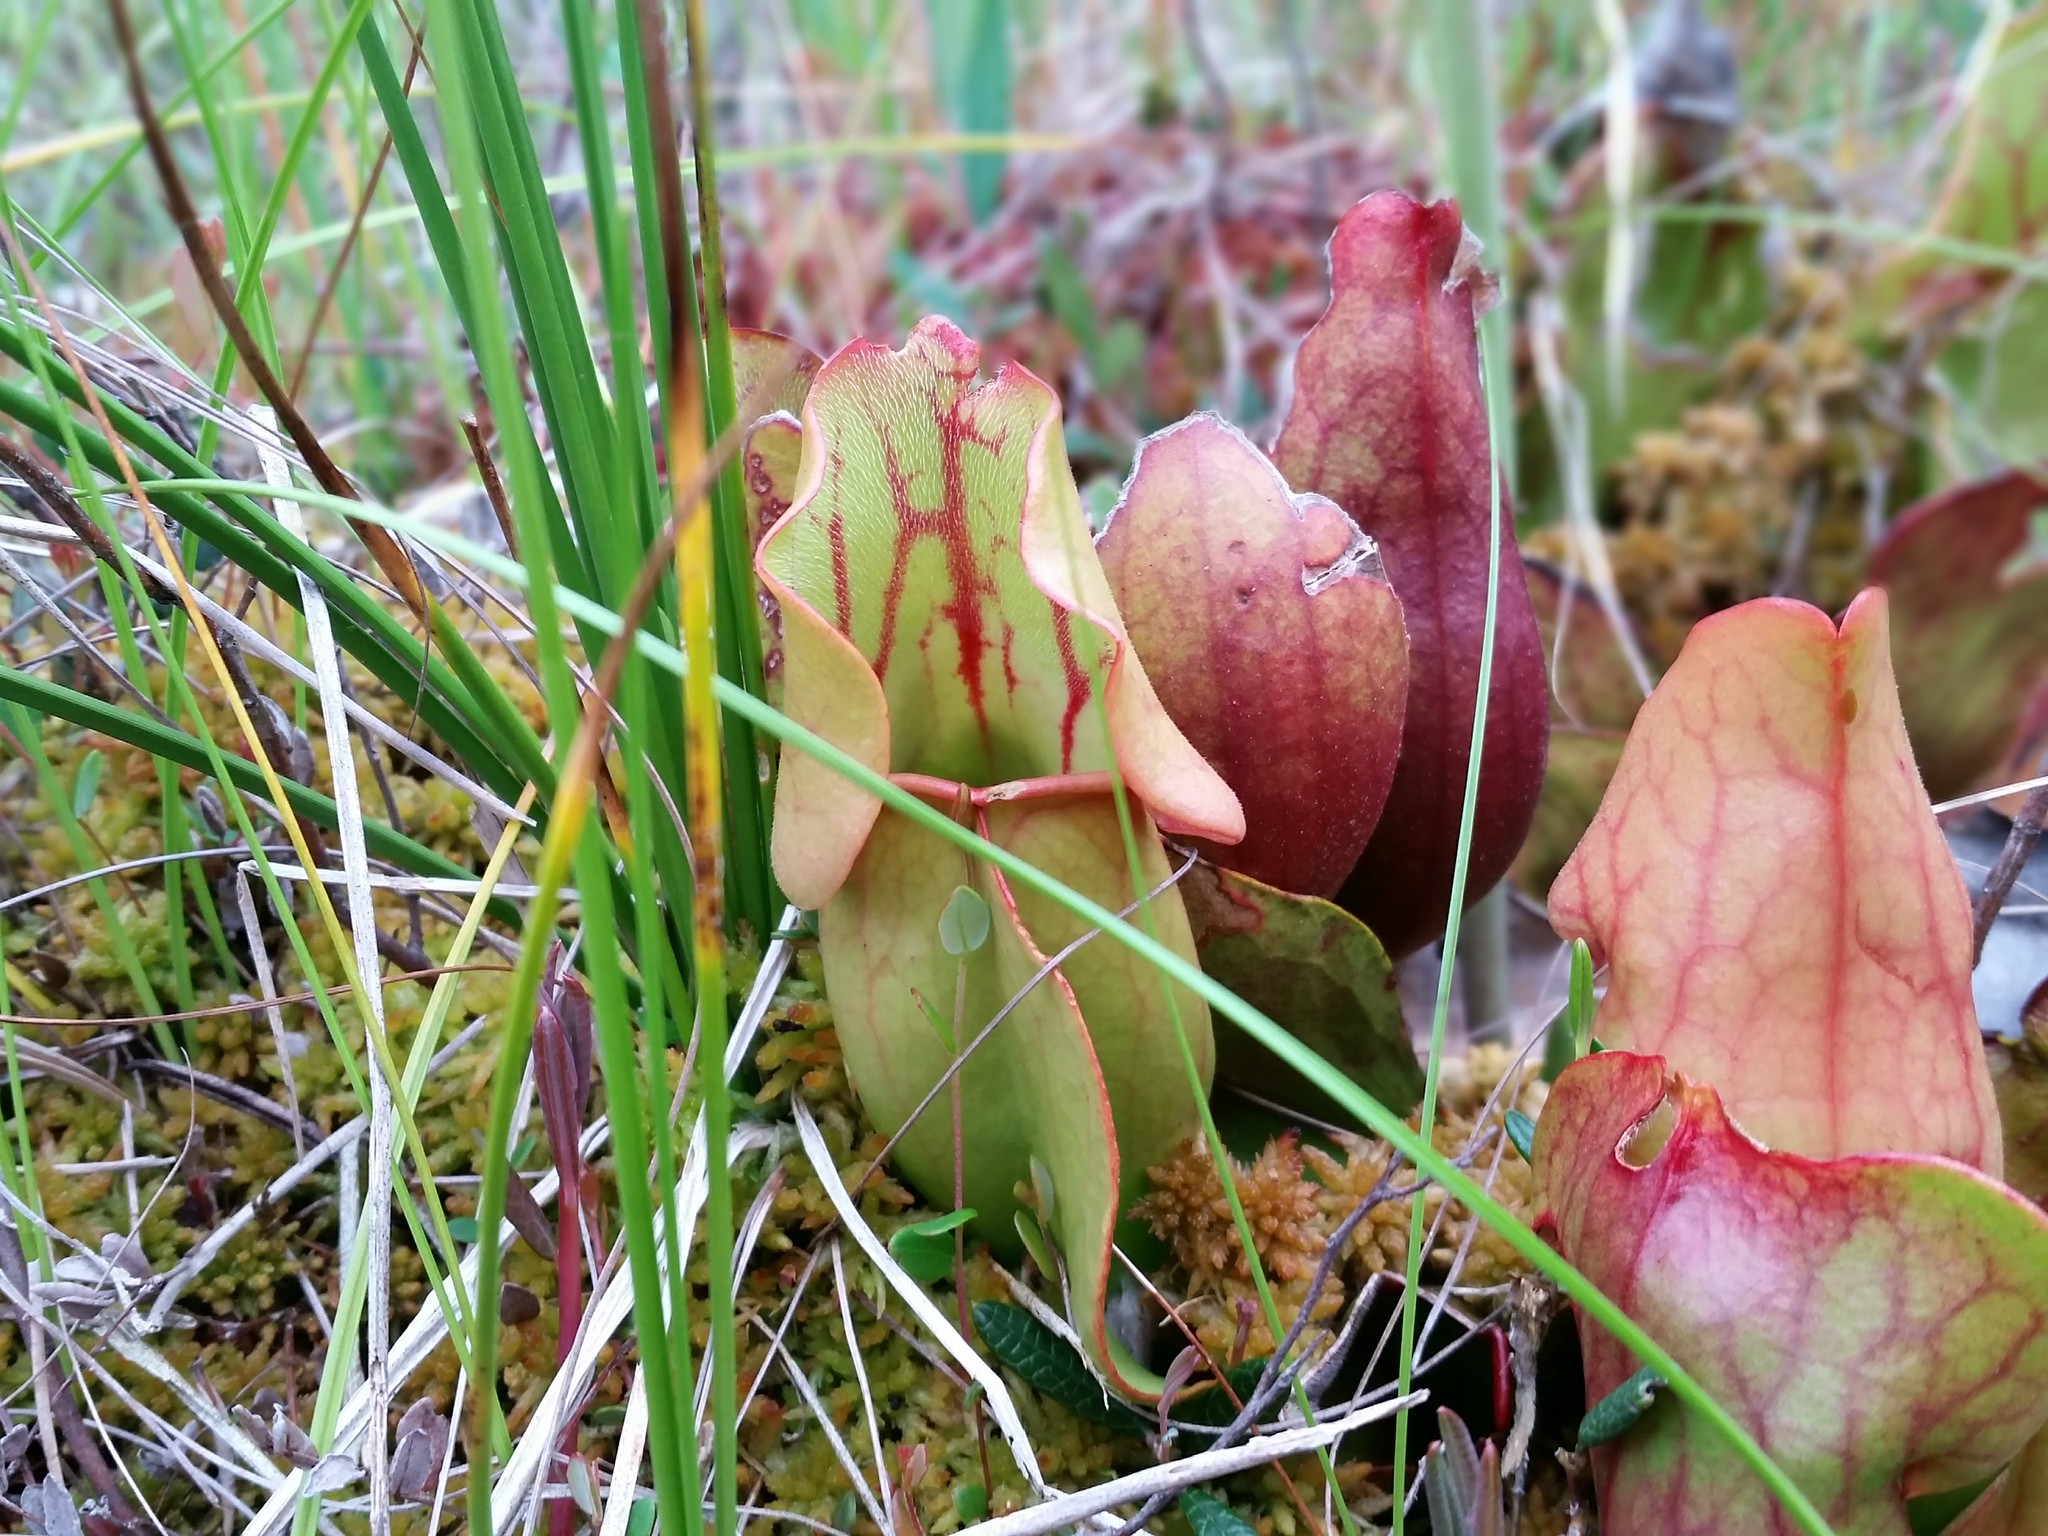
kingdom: Plantae
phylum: Tracheophyta
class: Magnoliopsida
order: Ericales
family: Sarraceniaceae
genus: Sarracenia
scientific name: Sarracenia purpurea
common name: Pitcherplant
